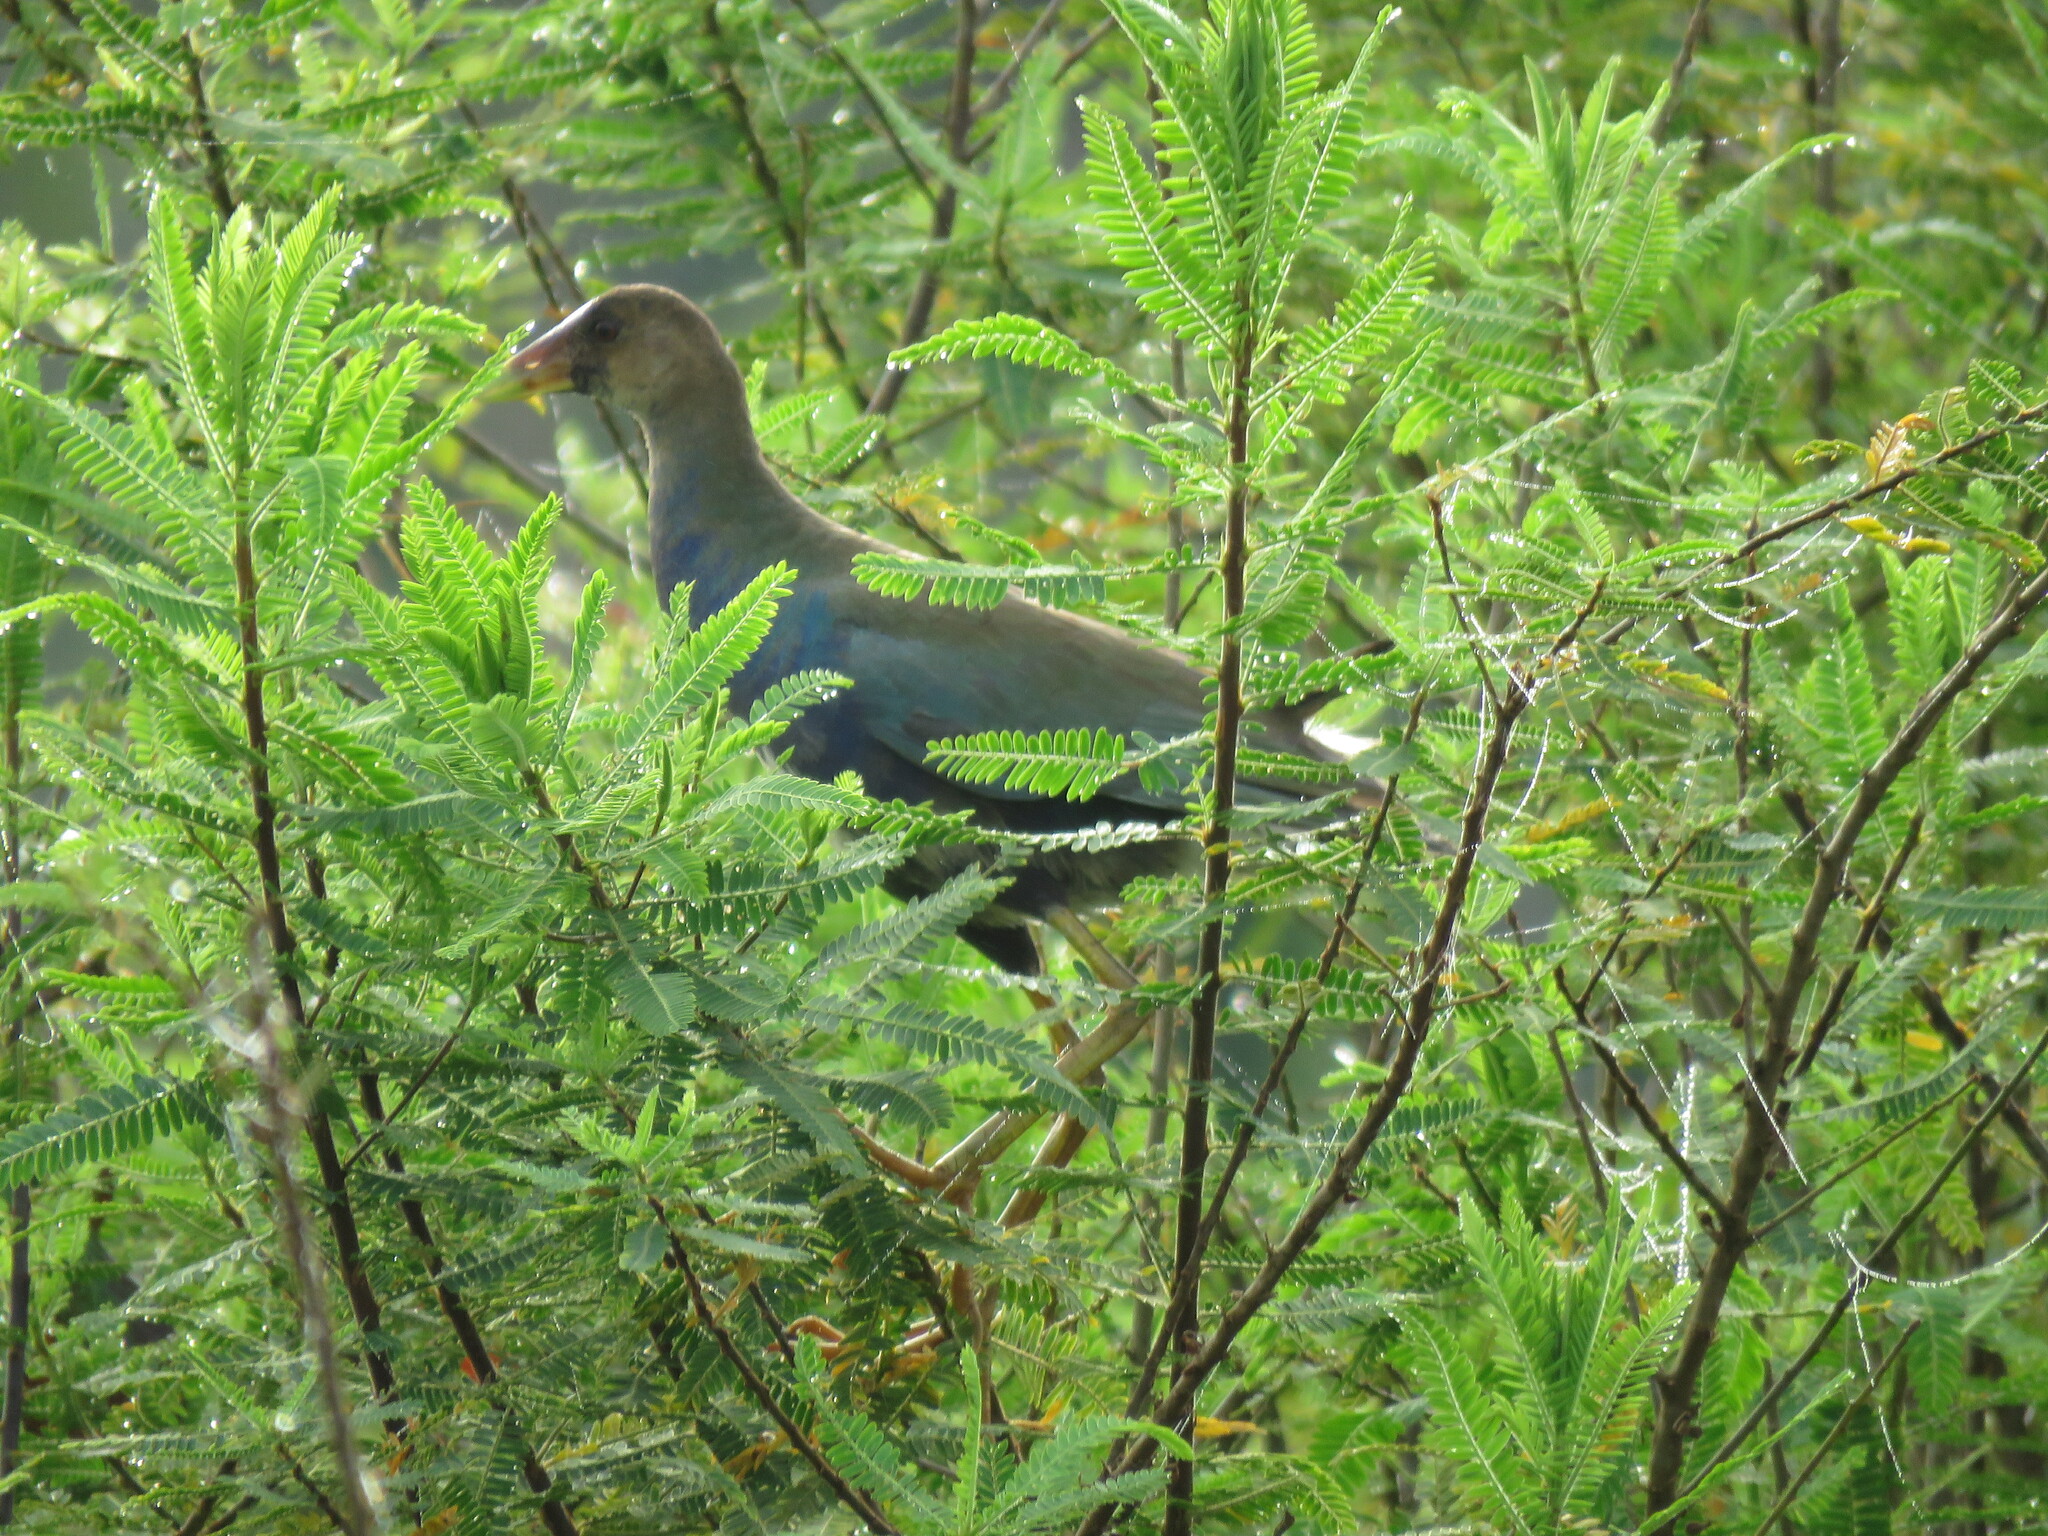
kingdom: Animalia
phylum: Chordata
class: Aves
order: Gruiformes
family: Rallidae
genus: Porphyrio
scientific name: Porphyrio martinica
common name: Purple gallinule
